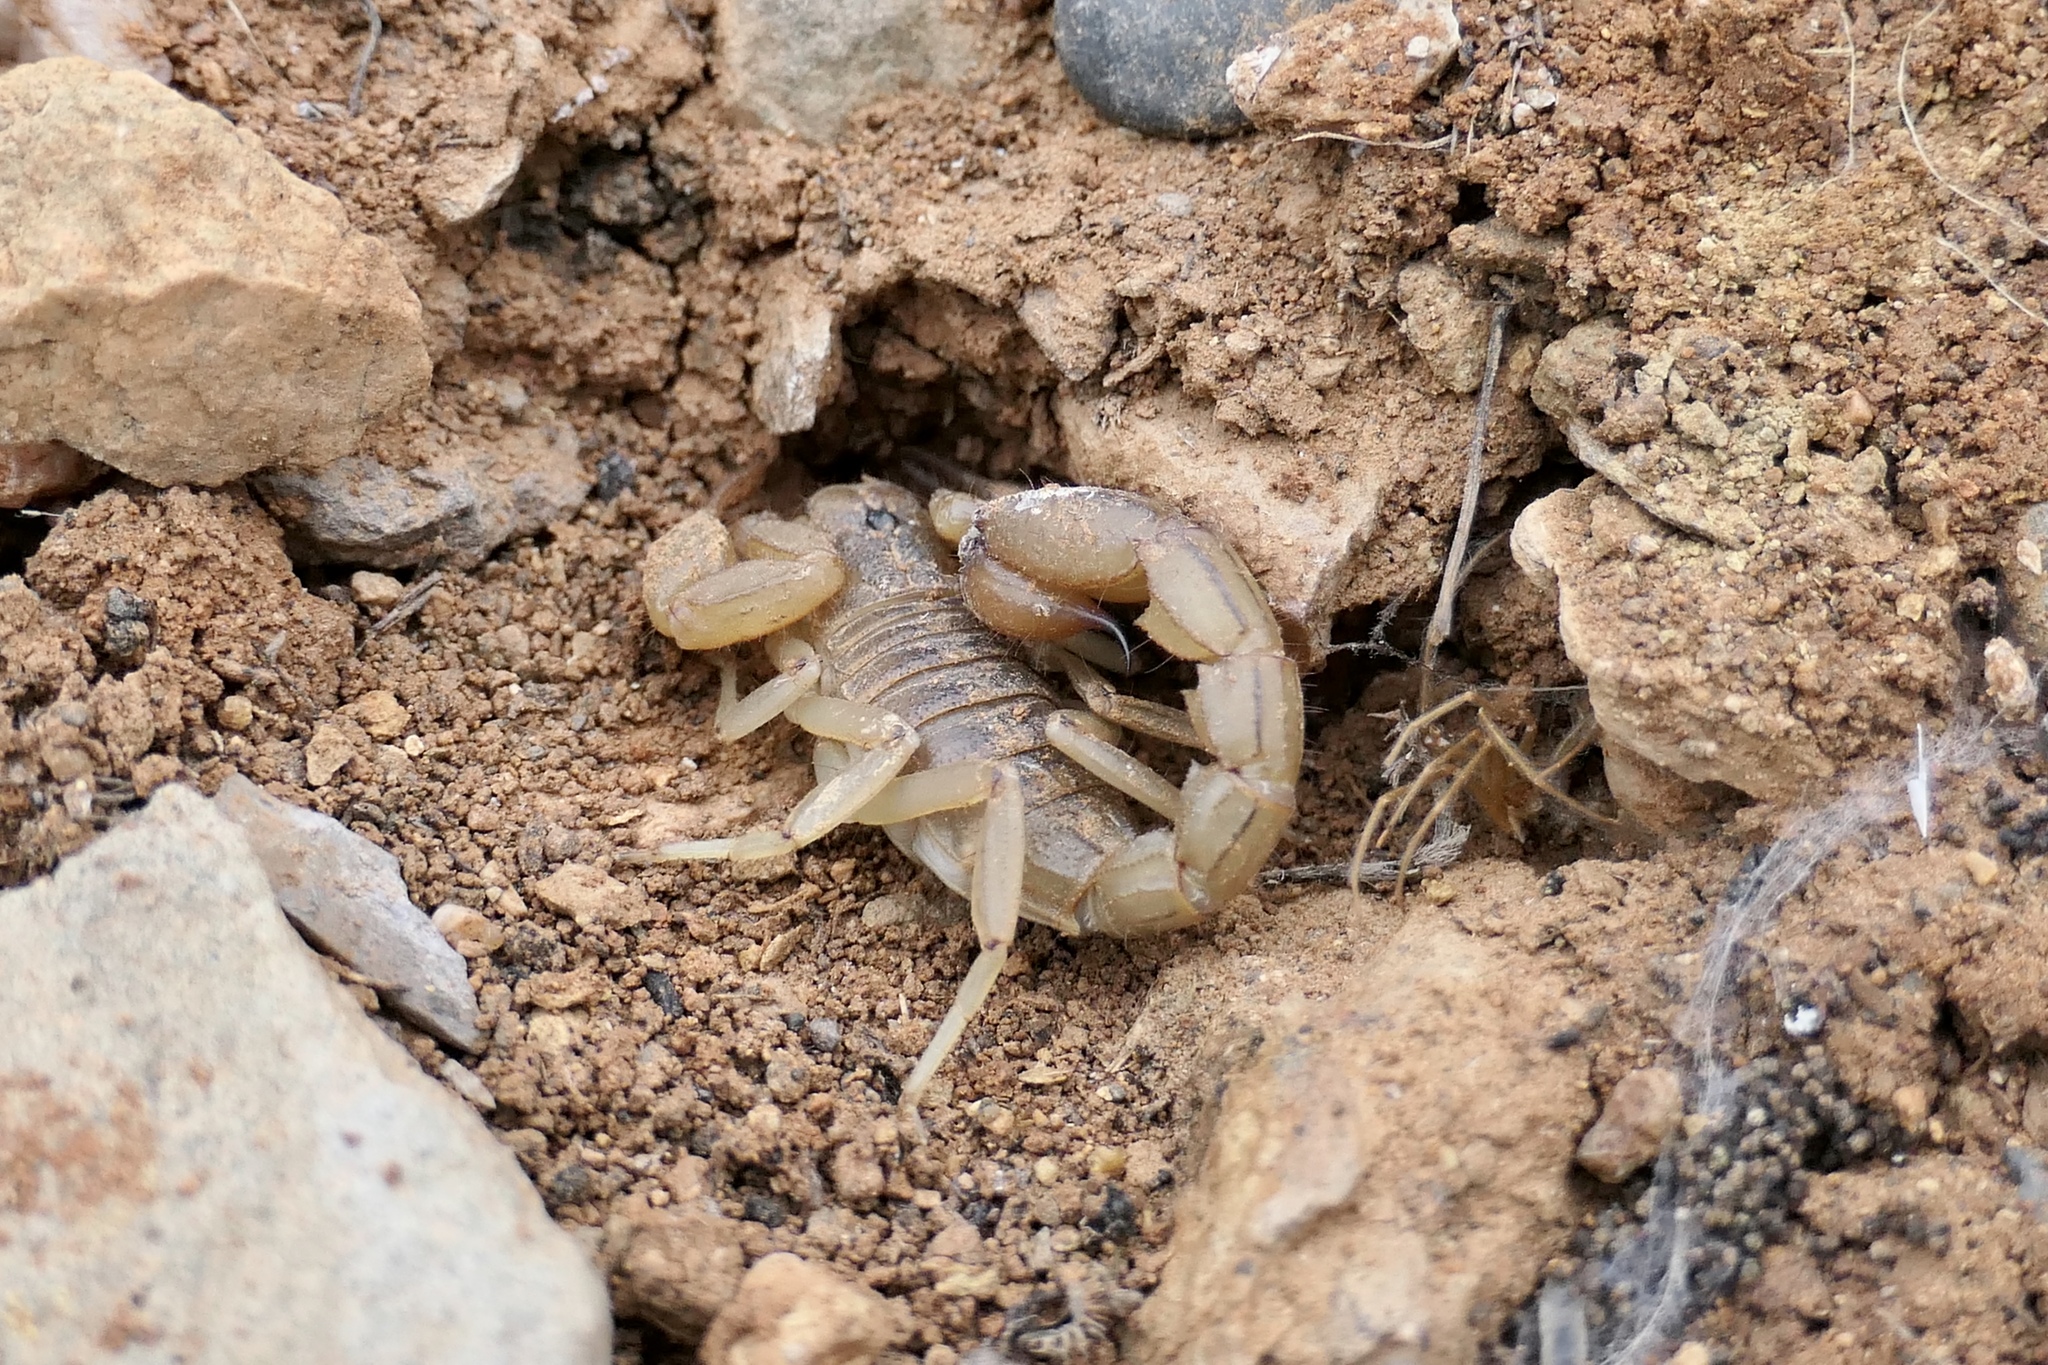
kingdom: Animalia
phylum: Arthropoda
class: Arachnida
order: Scorpiones
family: Vaejovidae
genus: Paravaejovis
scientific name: Paravaejovis spinigerus
